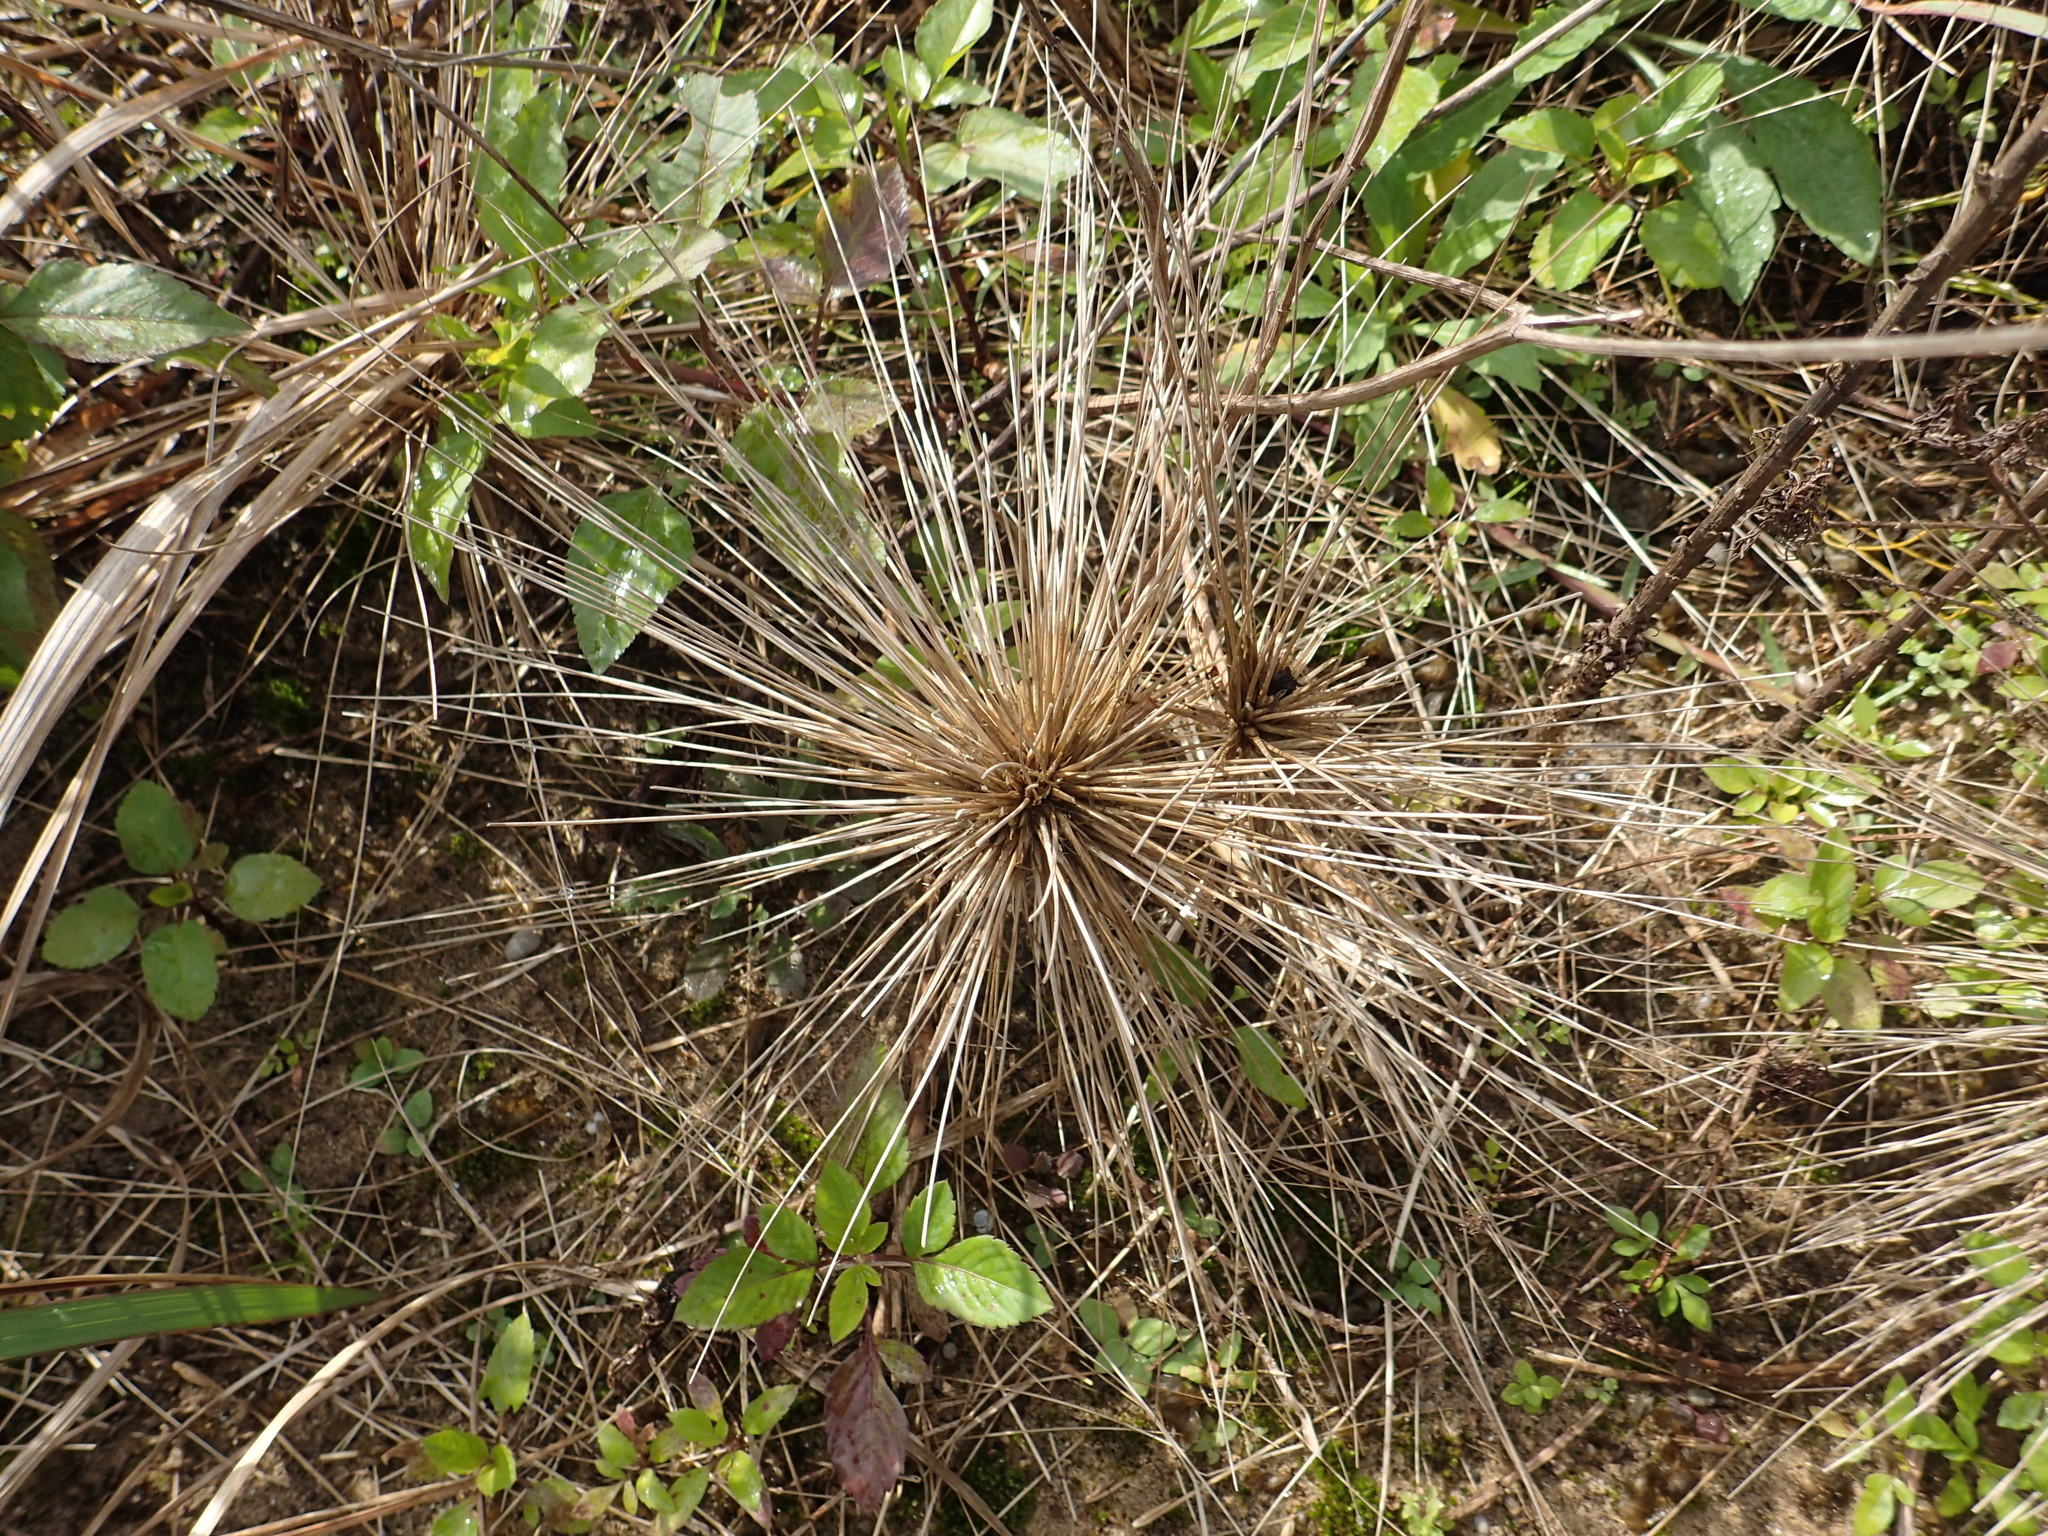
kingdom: Plantae
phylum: Tracheophyta
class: Liliopsida
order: Poales
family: Poaceae
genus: Spinifex
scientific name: Spinifex littoreus
